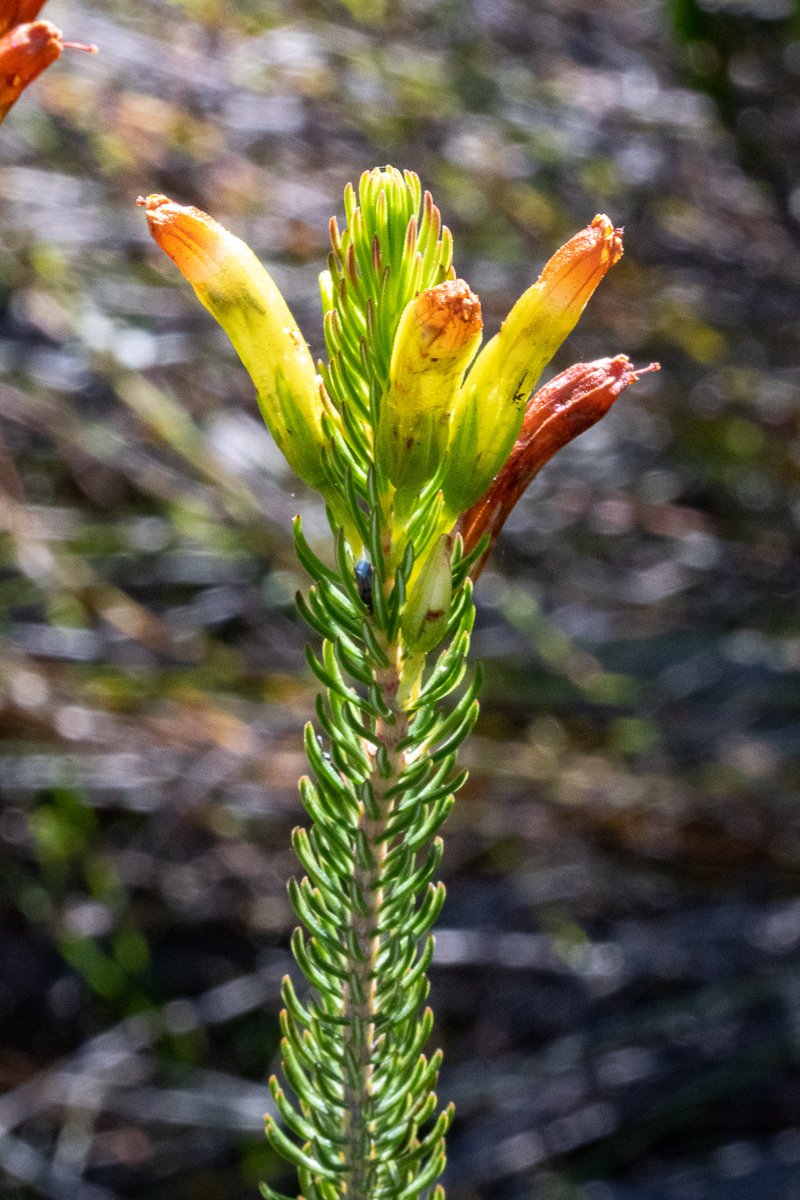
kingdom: Plantae
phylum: Tracheophyta
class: Magnoliopsida
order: Ericales
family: Ericaceae
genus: Erica
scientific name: Erica viscaria
